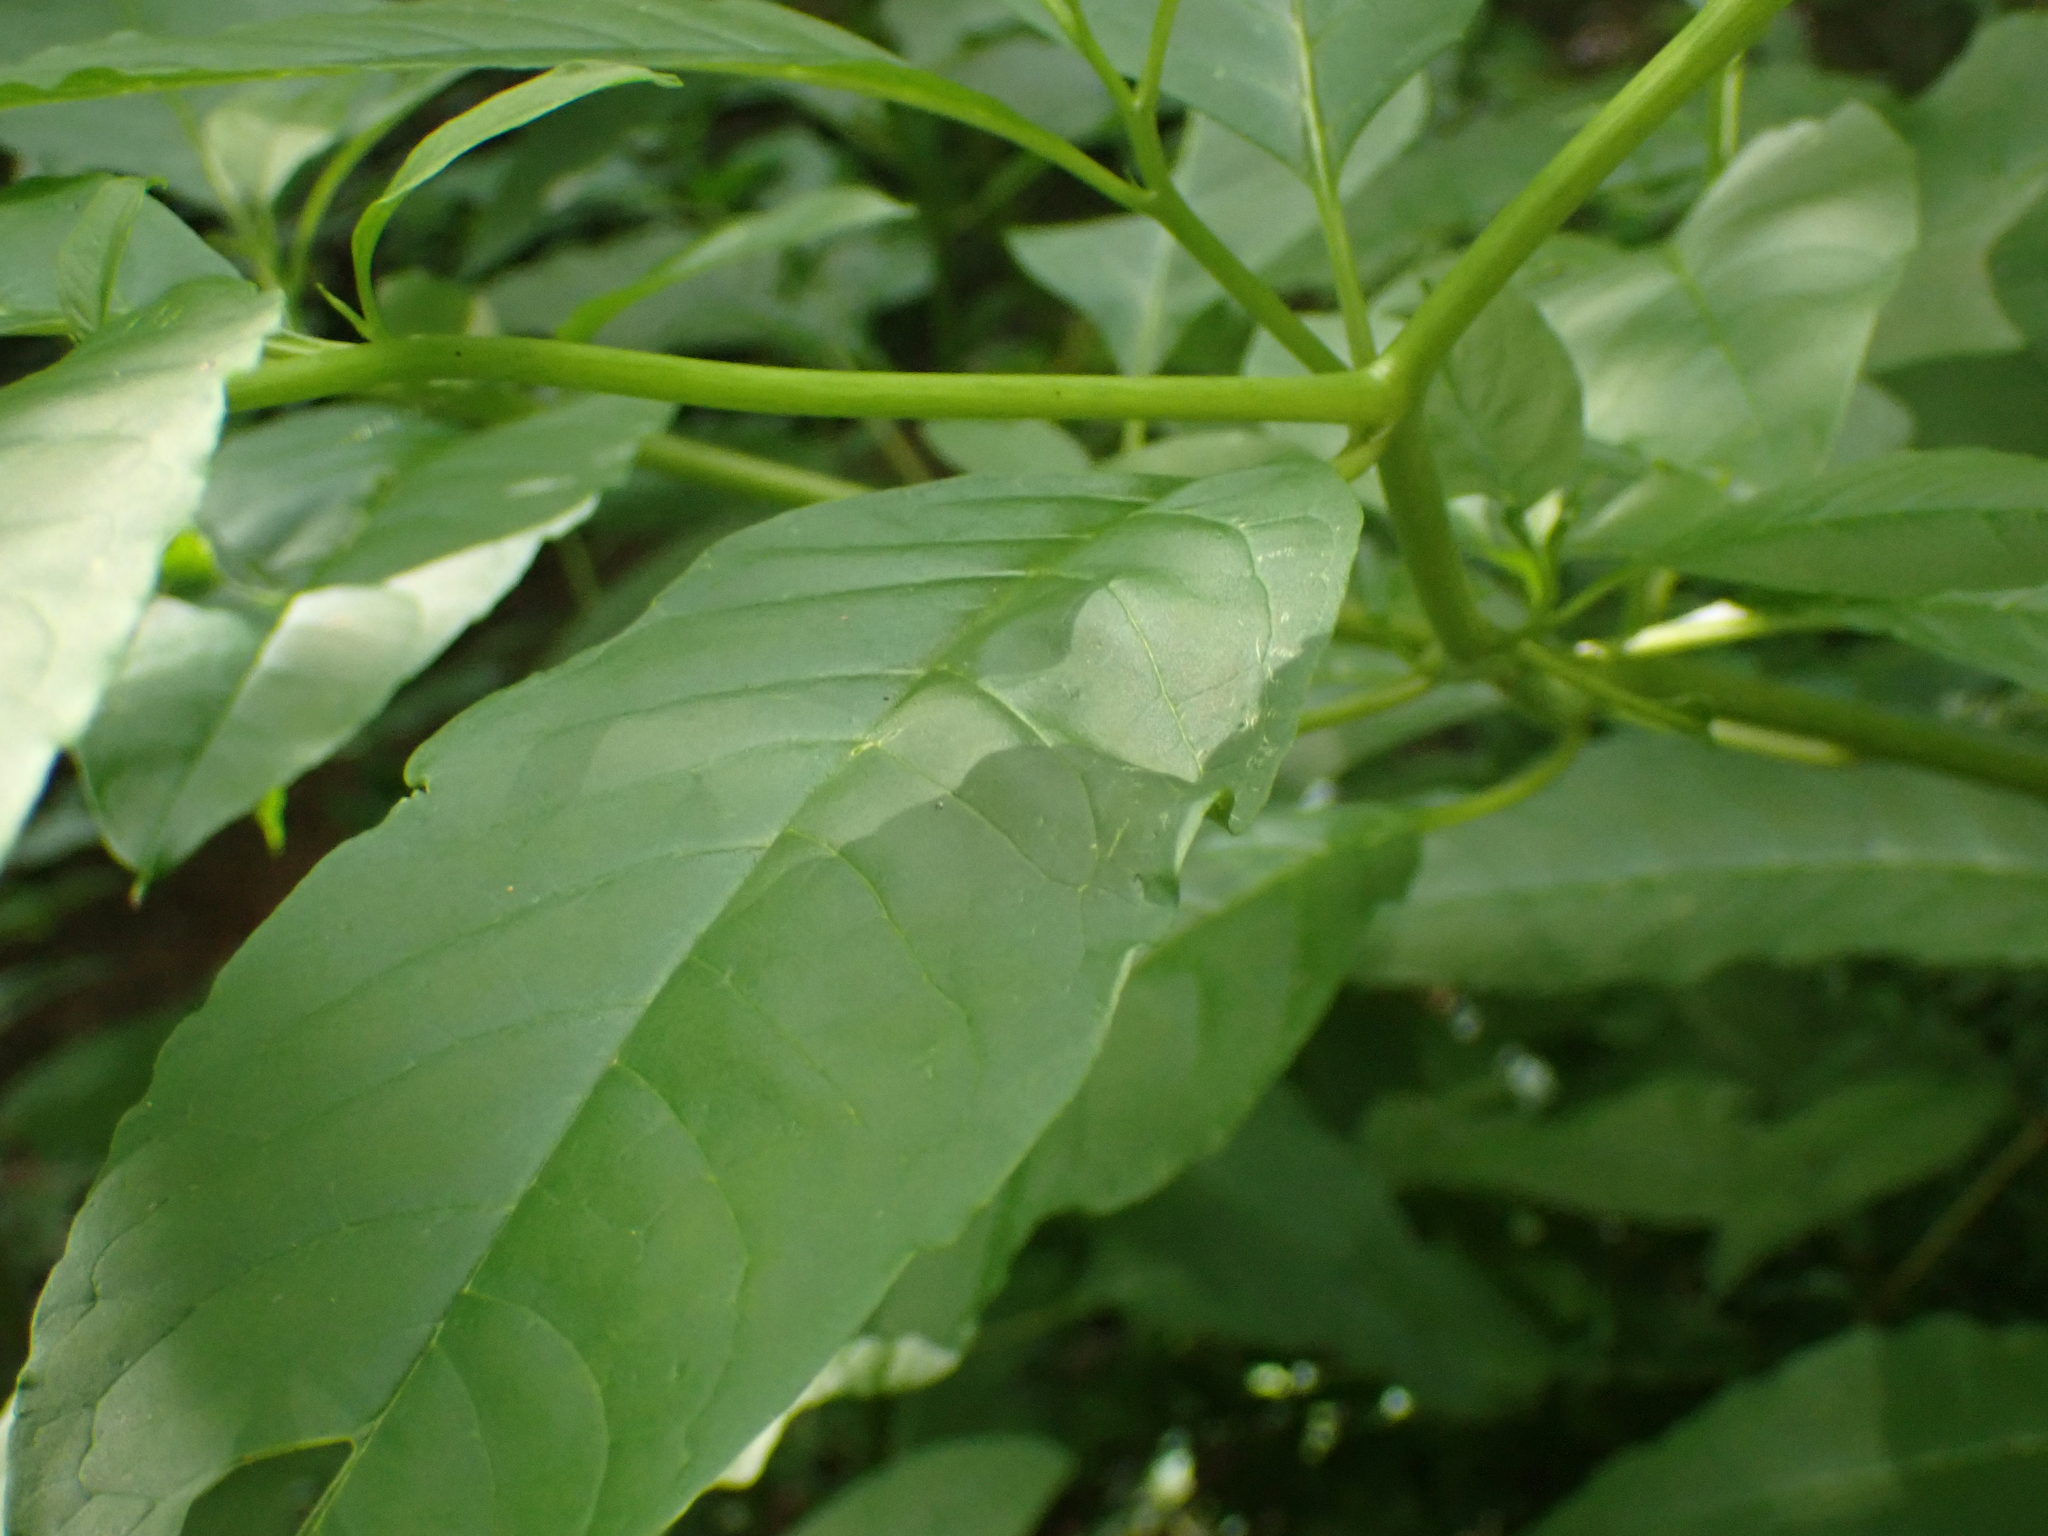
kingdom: Plantae
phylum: Tracheophyta
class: Magnoliopsida
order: Caryophyllales
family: Phytolaccaceae
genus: Phytolacca
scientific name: Phytolacca americana
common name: American pokeweed
